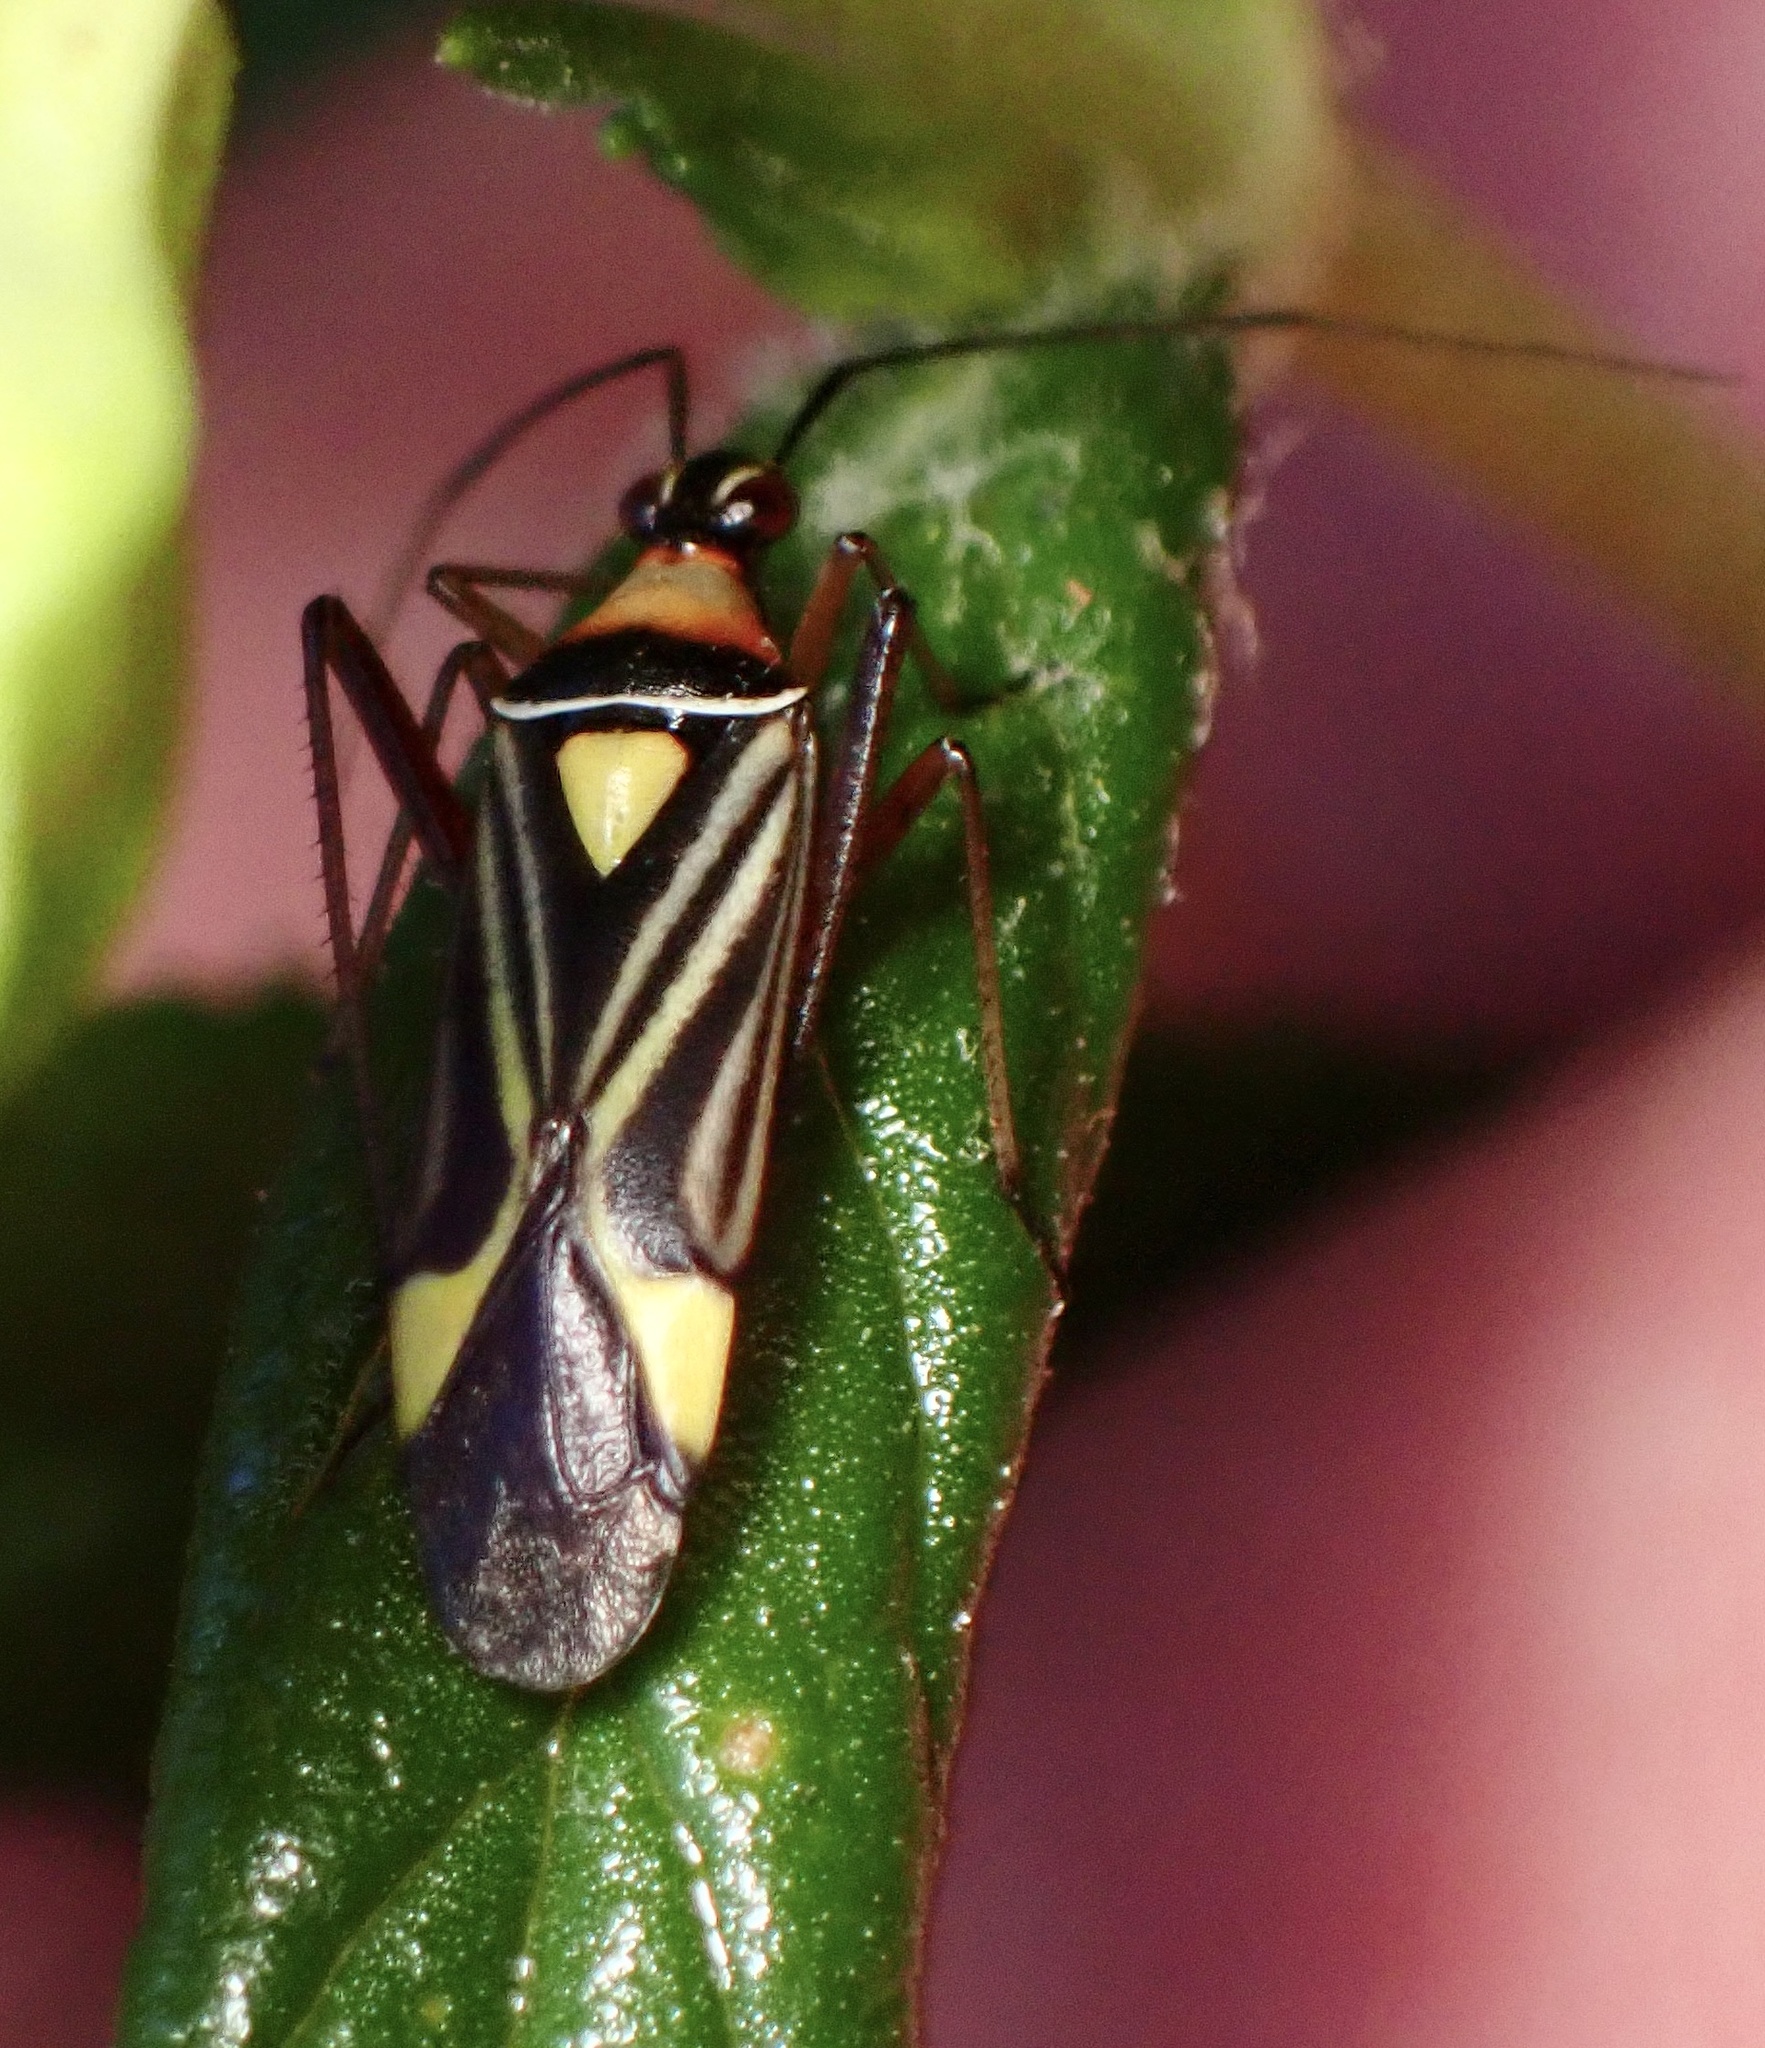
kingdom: Animalia
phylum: Arthropoda
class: Insecta
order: Hemiptera
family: Miridae
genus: Closterocoris
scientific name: Closterocoris amoenus
